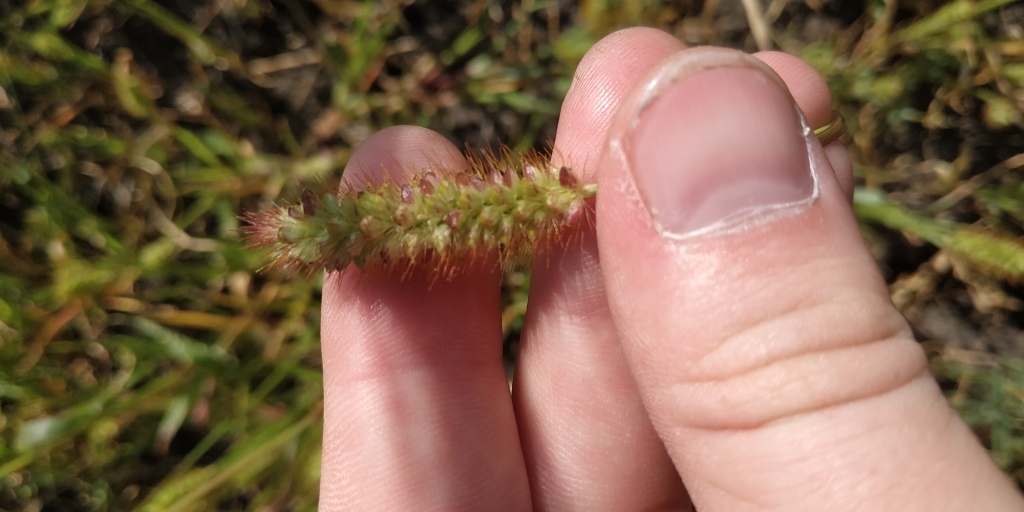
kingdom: Plantae
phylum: Tracheophyta
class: Liliopsida
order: Poales
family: Poaceae
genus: Setaria
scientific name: Setaria pumila
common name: Yellow bristle-grass
